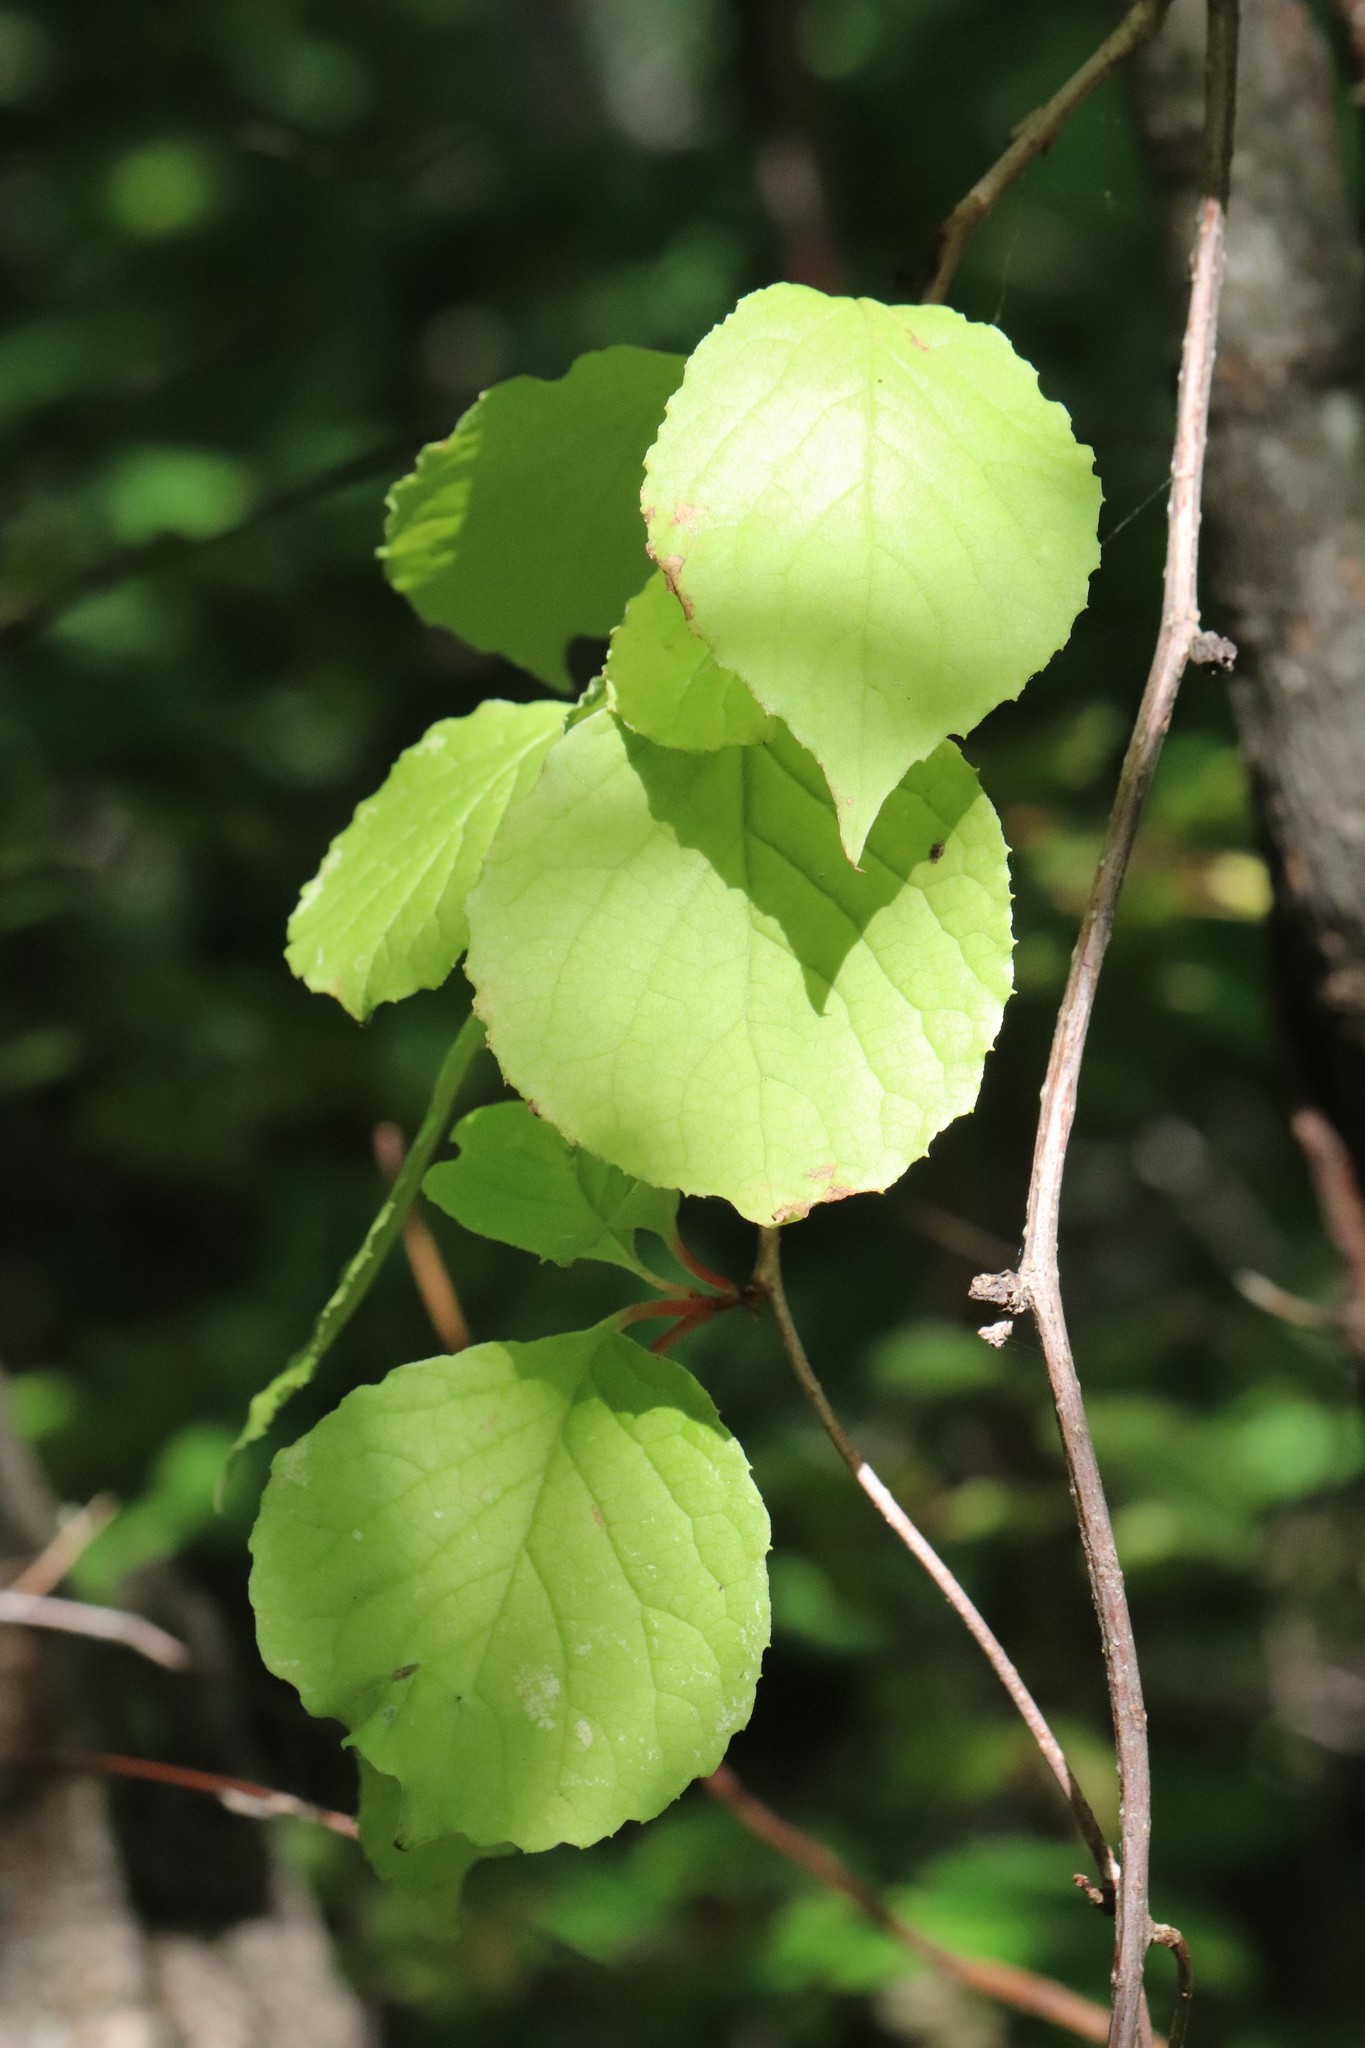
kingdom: Plantae
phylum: Tracheophyta
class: Magnoliopsida
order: Austrobaileyales
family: Schisandraceae
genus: Schisandra
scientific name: Schisandra chinensis
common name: Magnolia-vine
